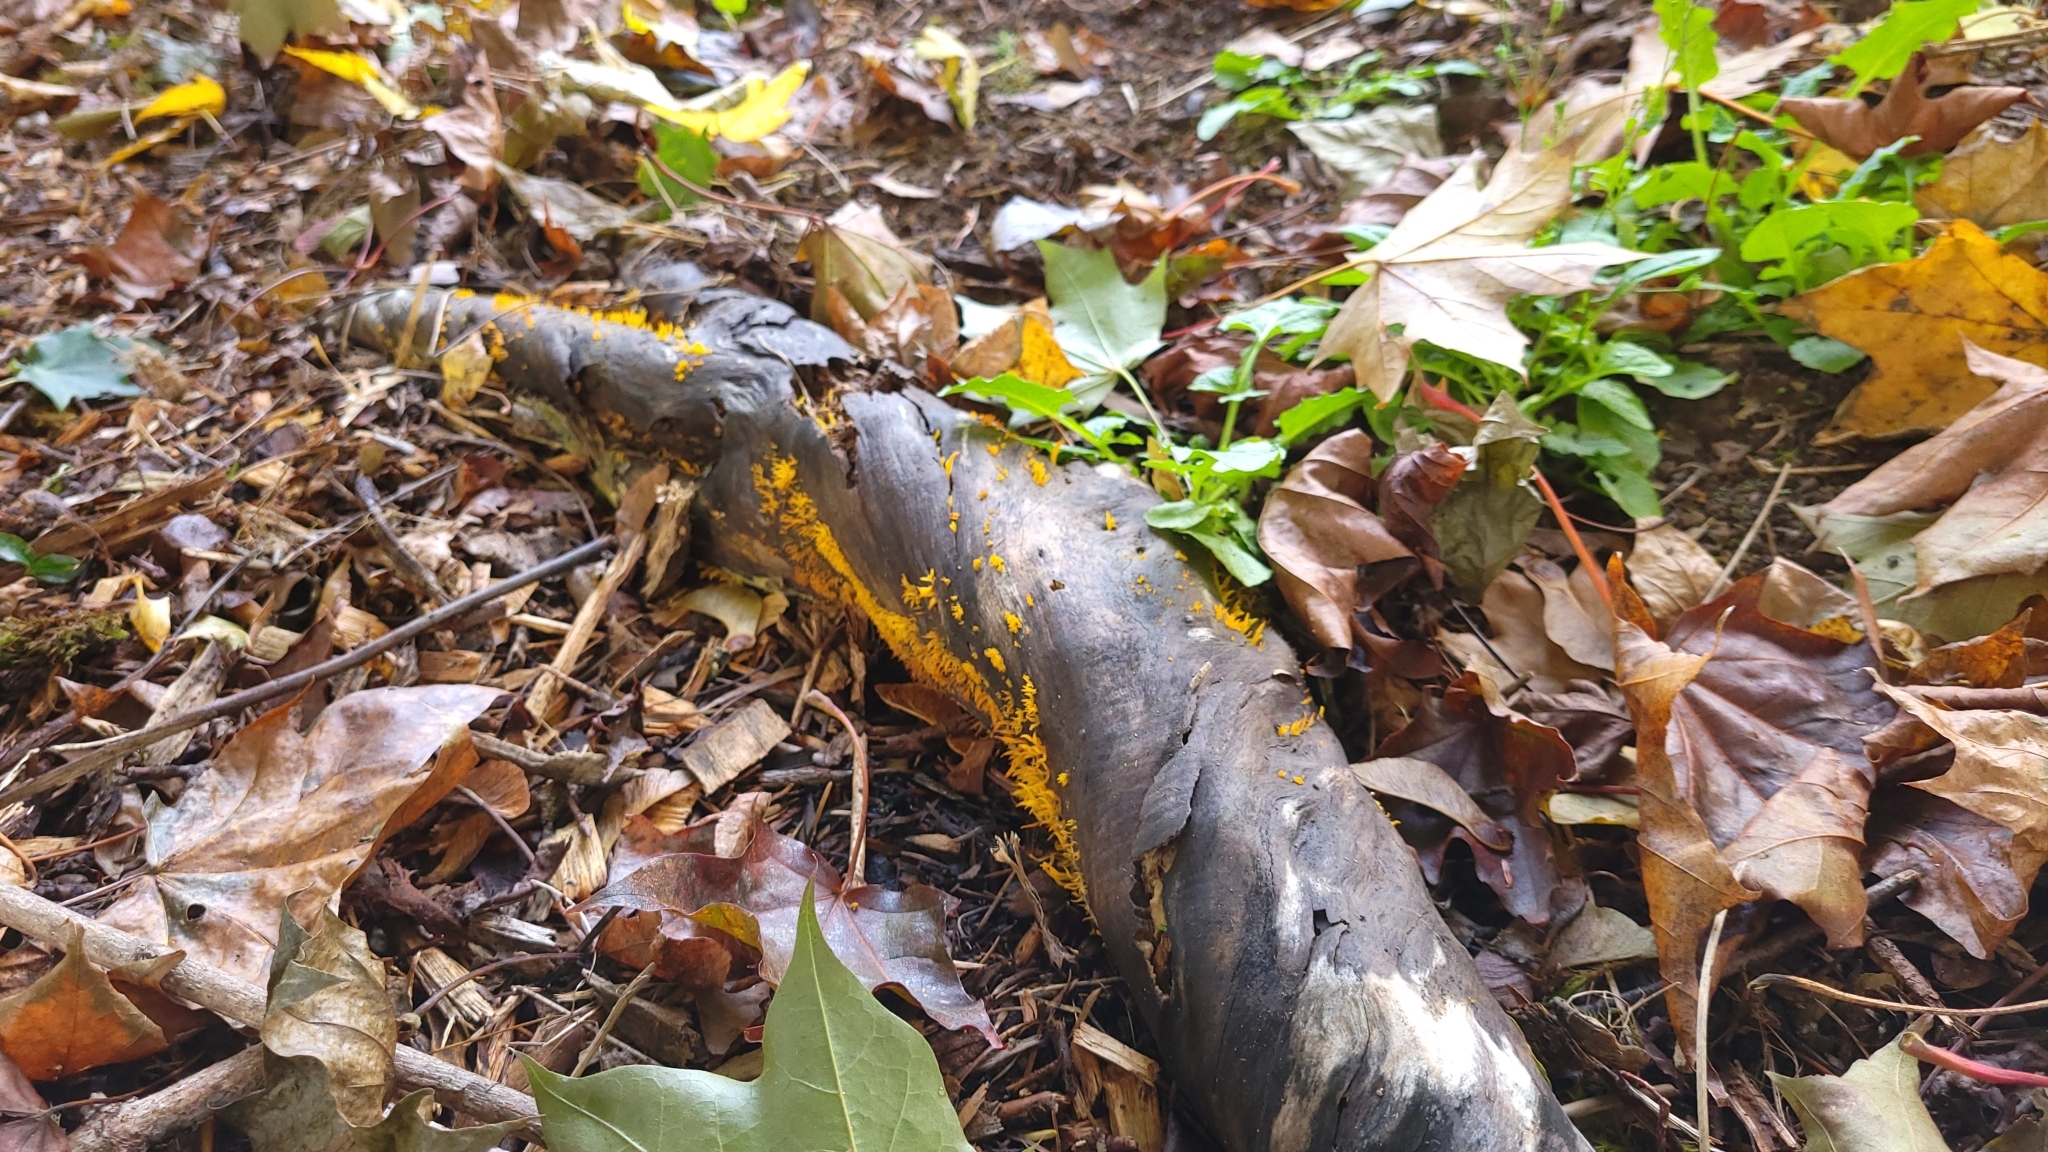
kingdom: Fungi
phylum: Basidiomycota
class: Dacrymycetes
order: Dacrymycetales
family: Dacrymycetaceae
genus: Calocera
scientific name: Calocera cornea
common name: Small stagshorn
